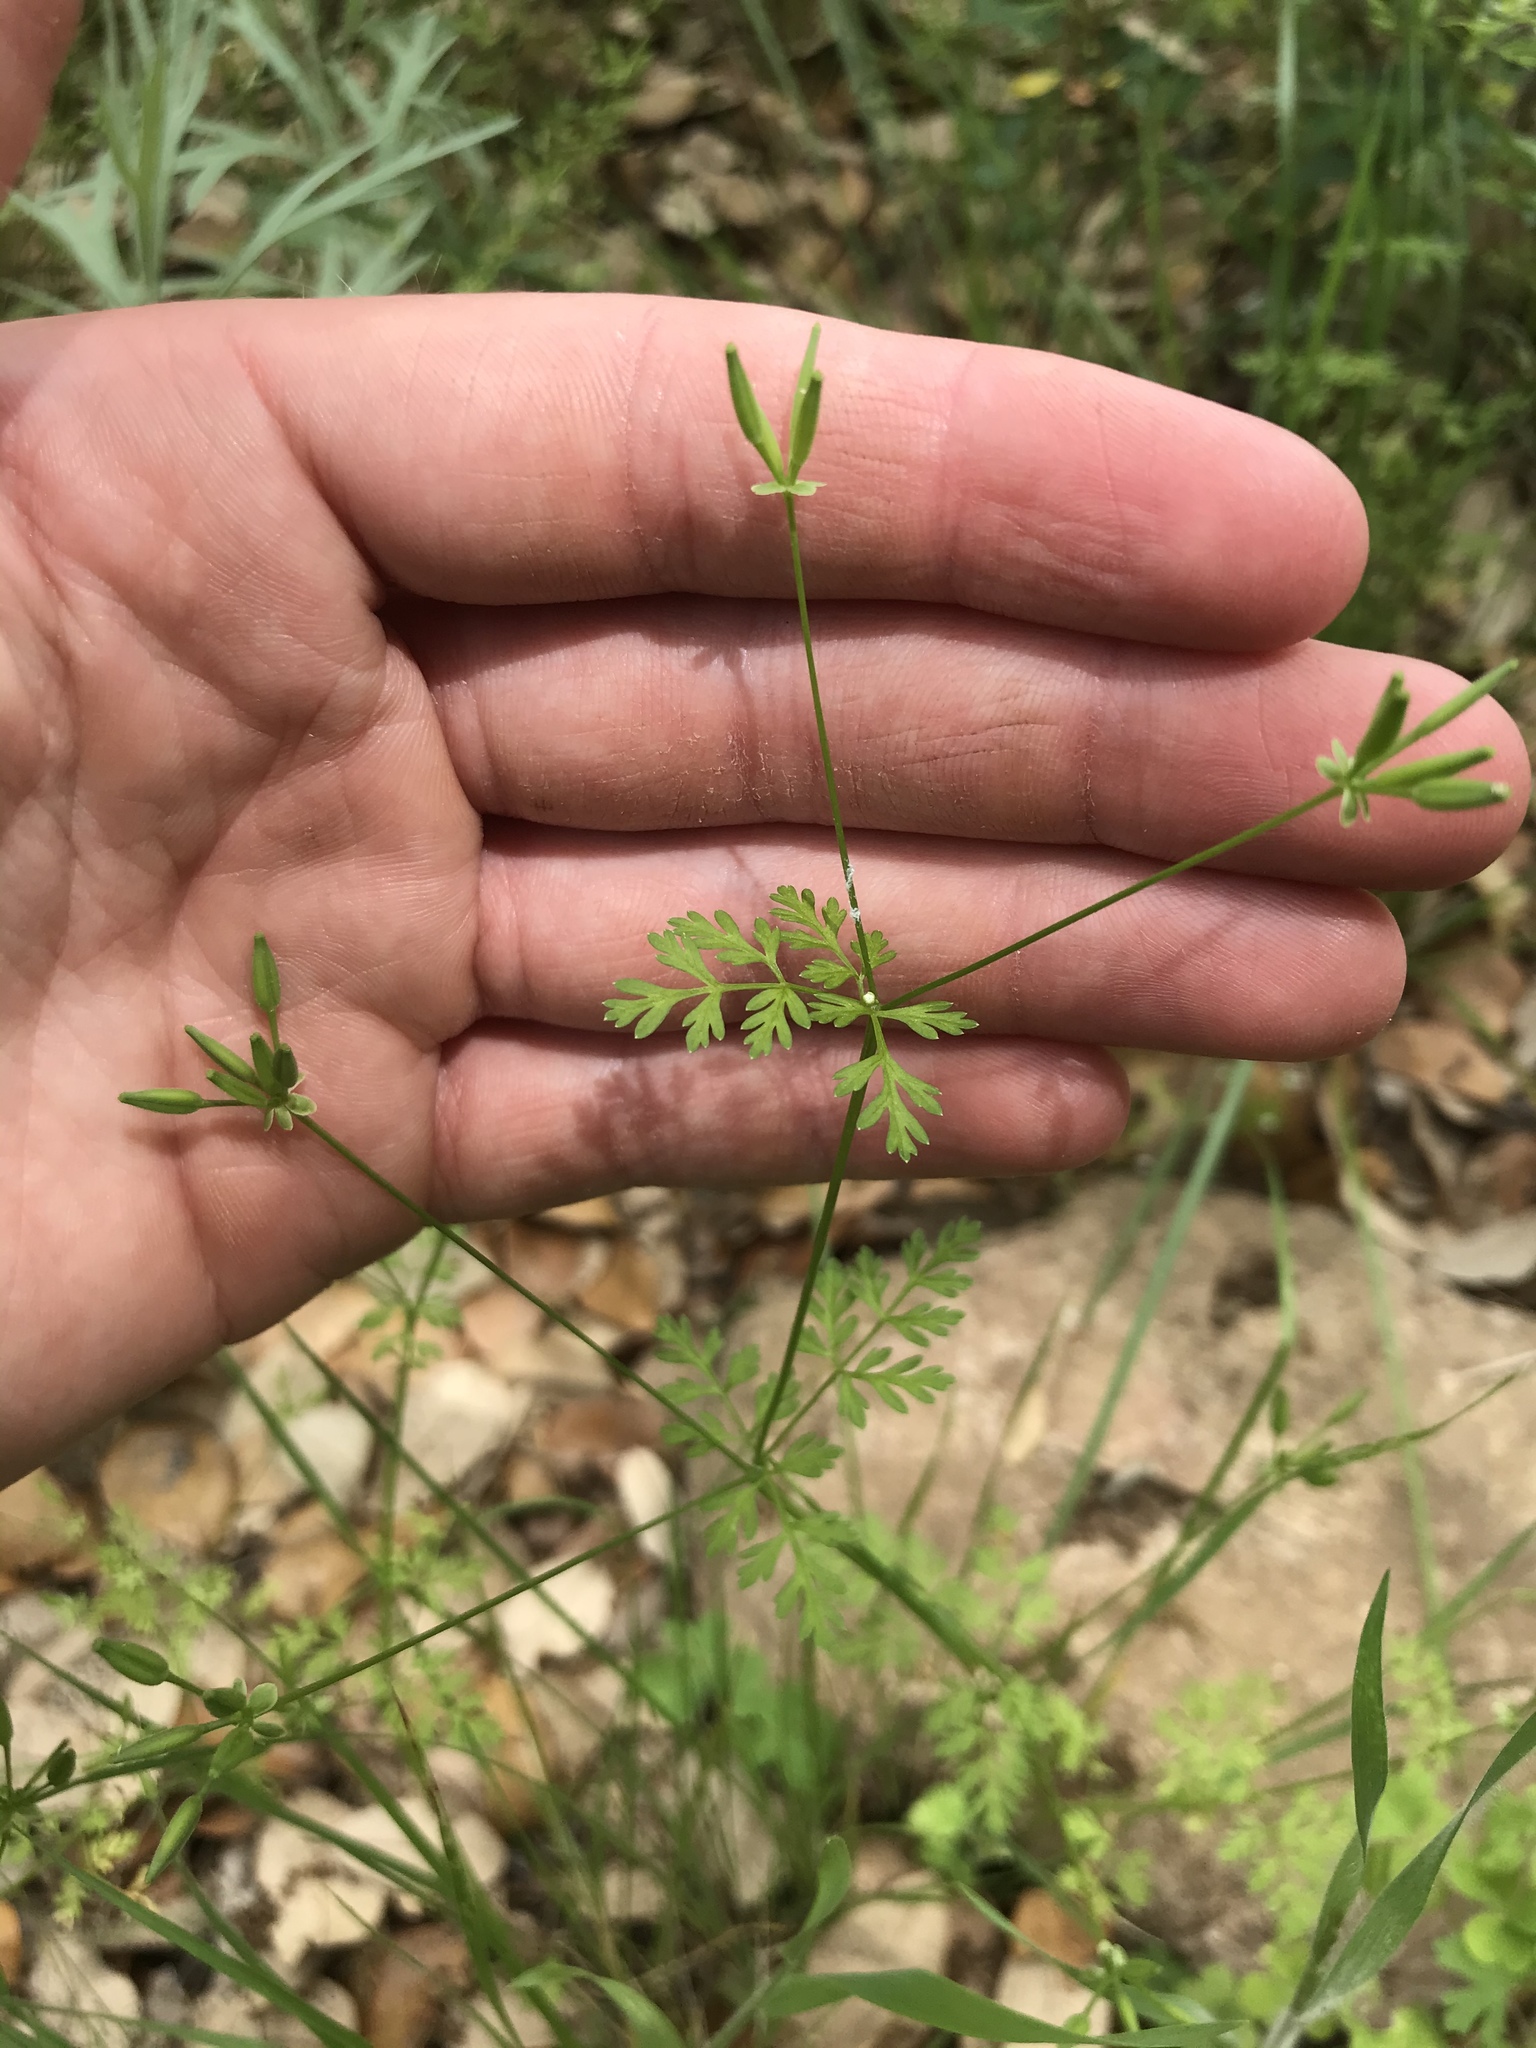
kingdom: Plantae
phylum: Tracheophyta
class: Magnoliopsida
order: Apiales
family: Apiaceae
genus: Chaerophyllum
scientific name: Chaerophyllum tainturieri
